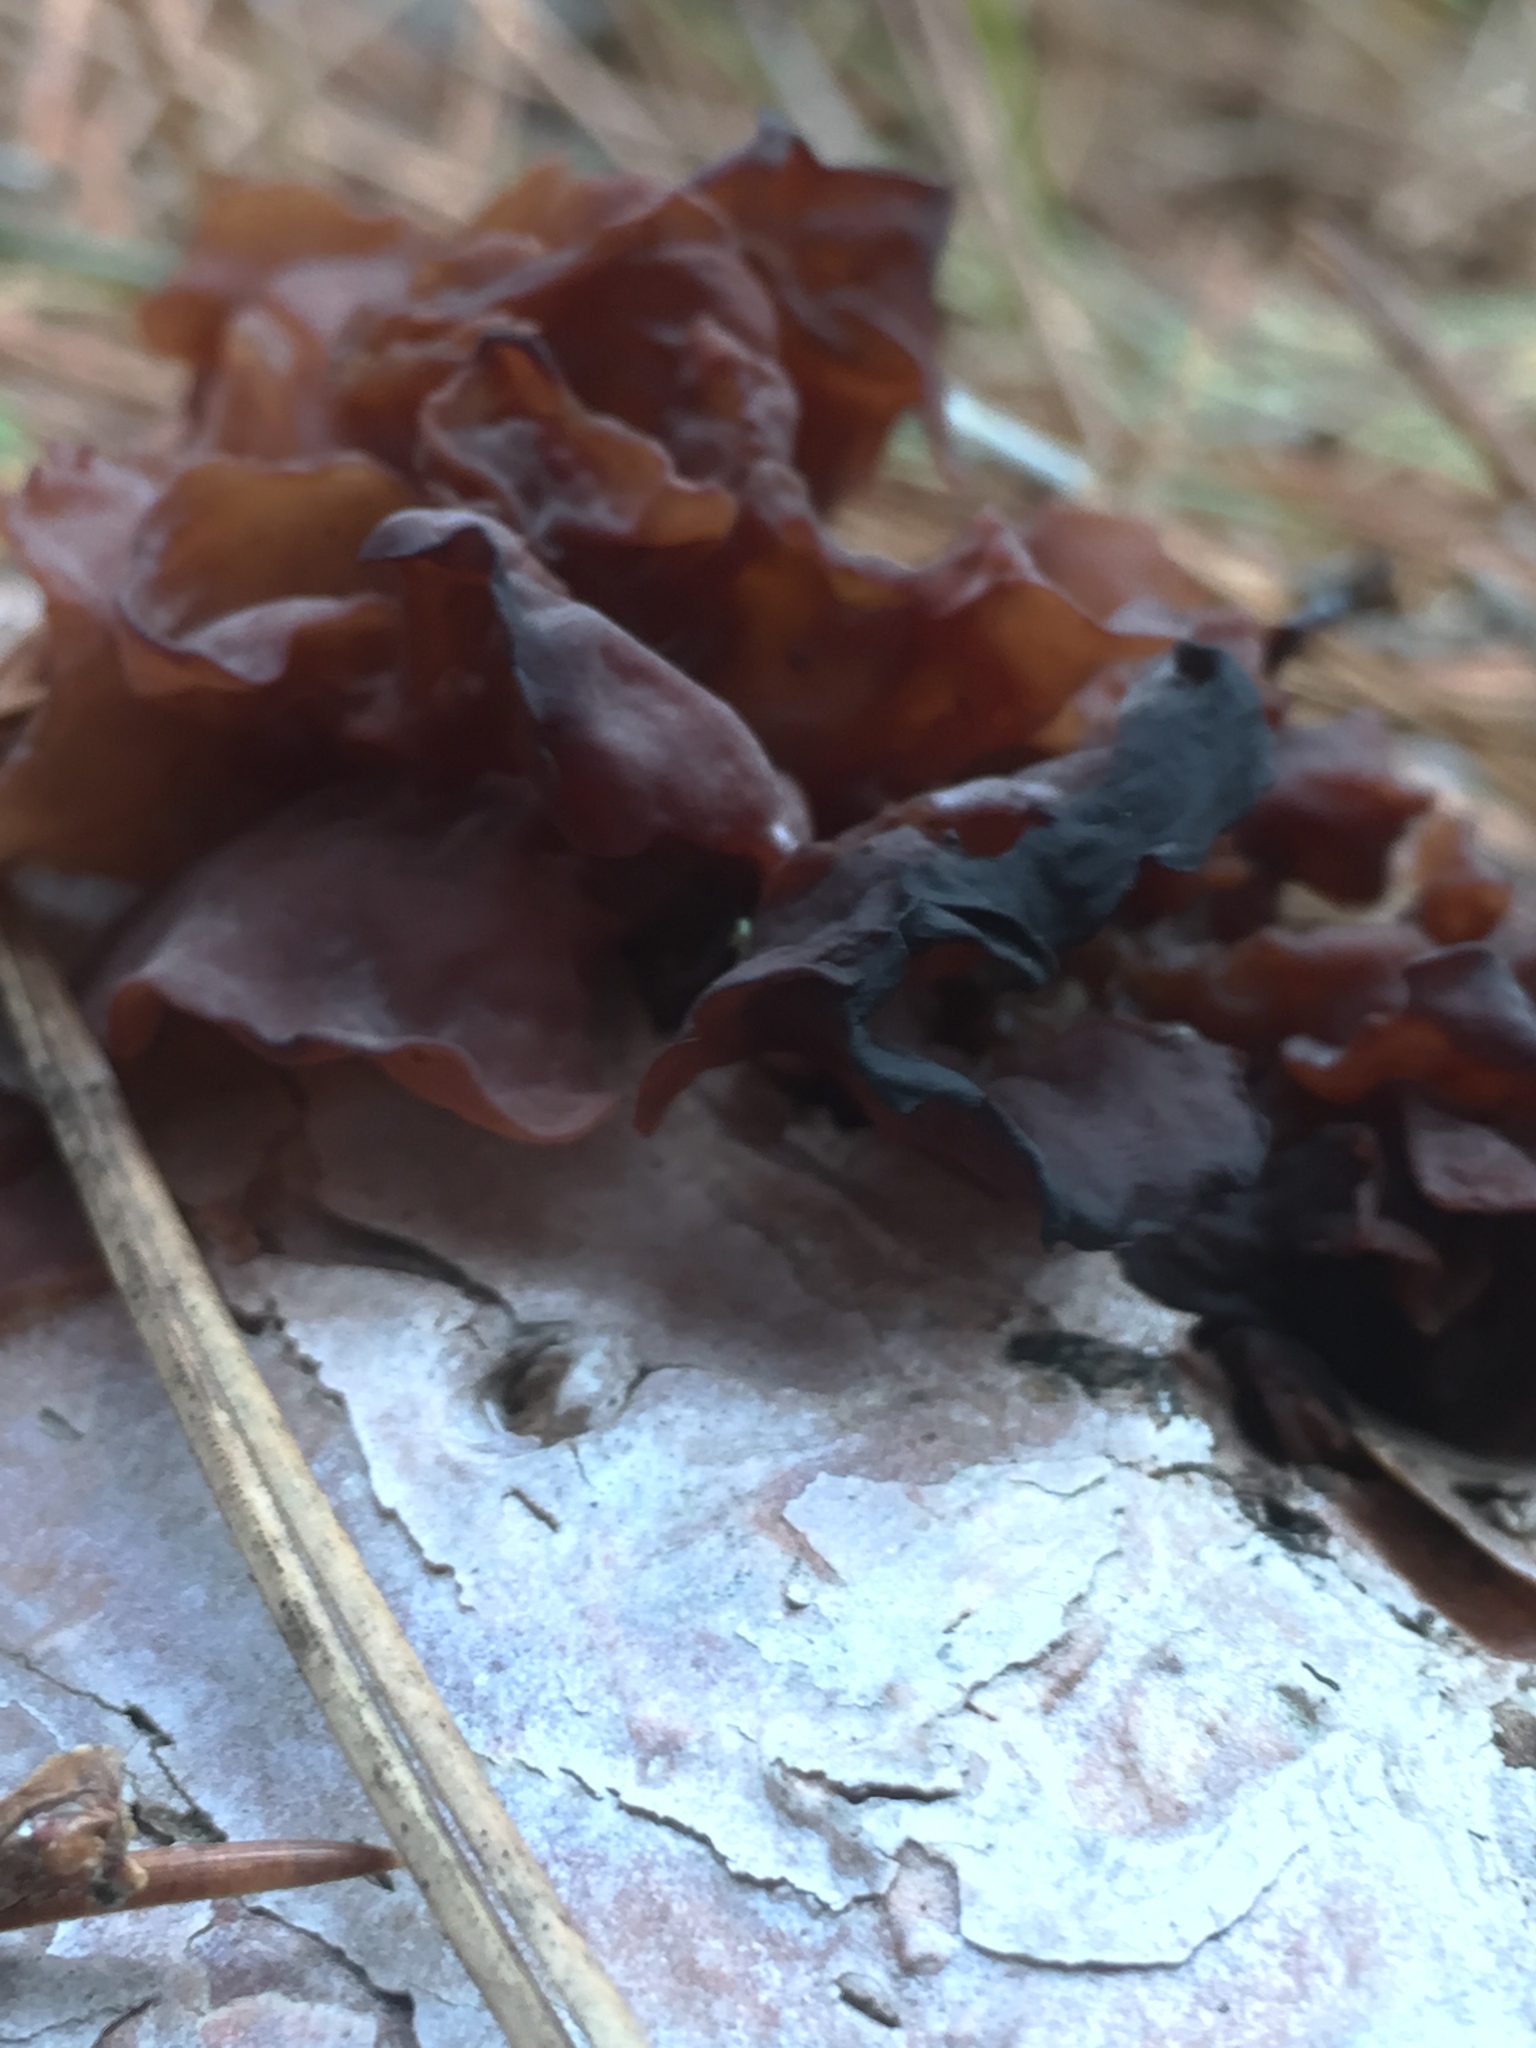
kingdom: Fungi
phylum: Basidiomycota
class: Tremellomycetes
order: Tremellales
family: Tremellaceae
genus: Phaeotremella
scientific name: Phaeotremella foliacea
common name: Leafy brain
